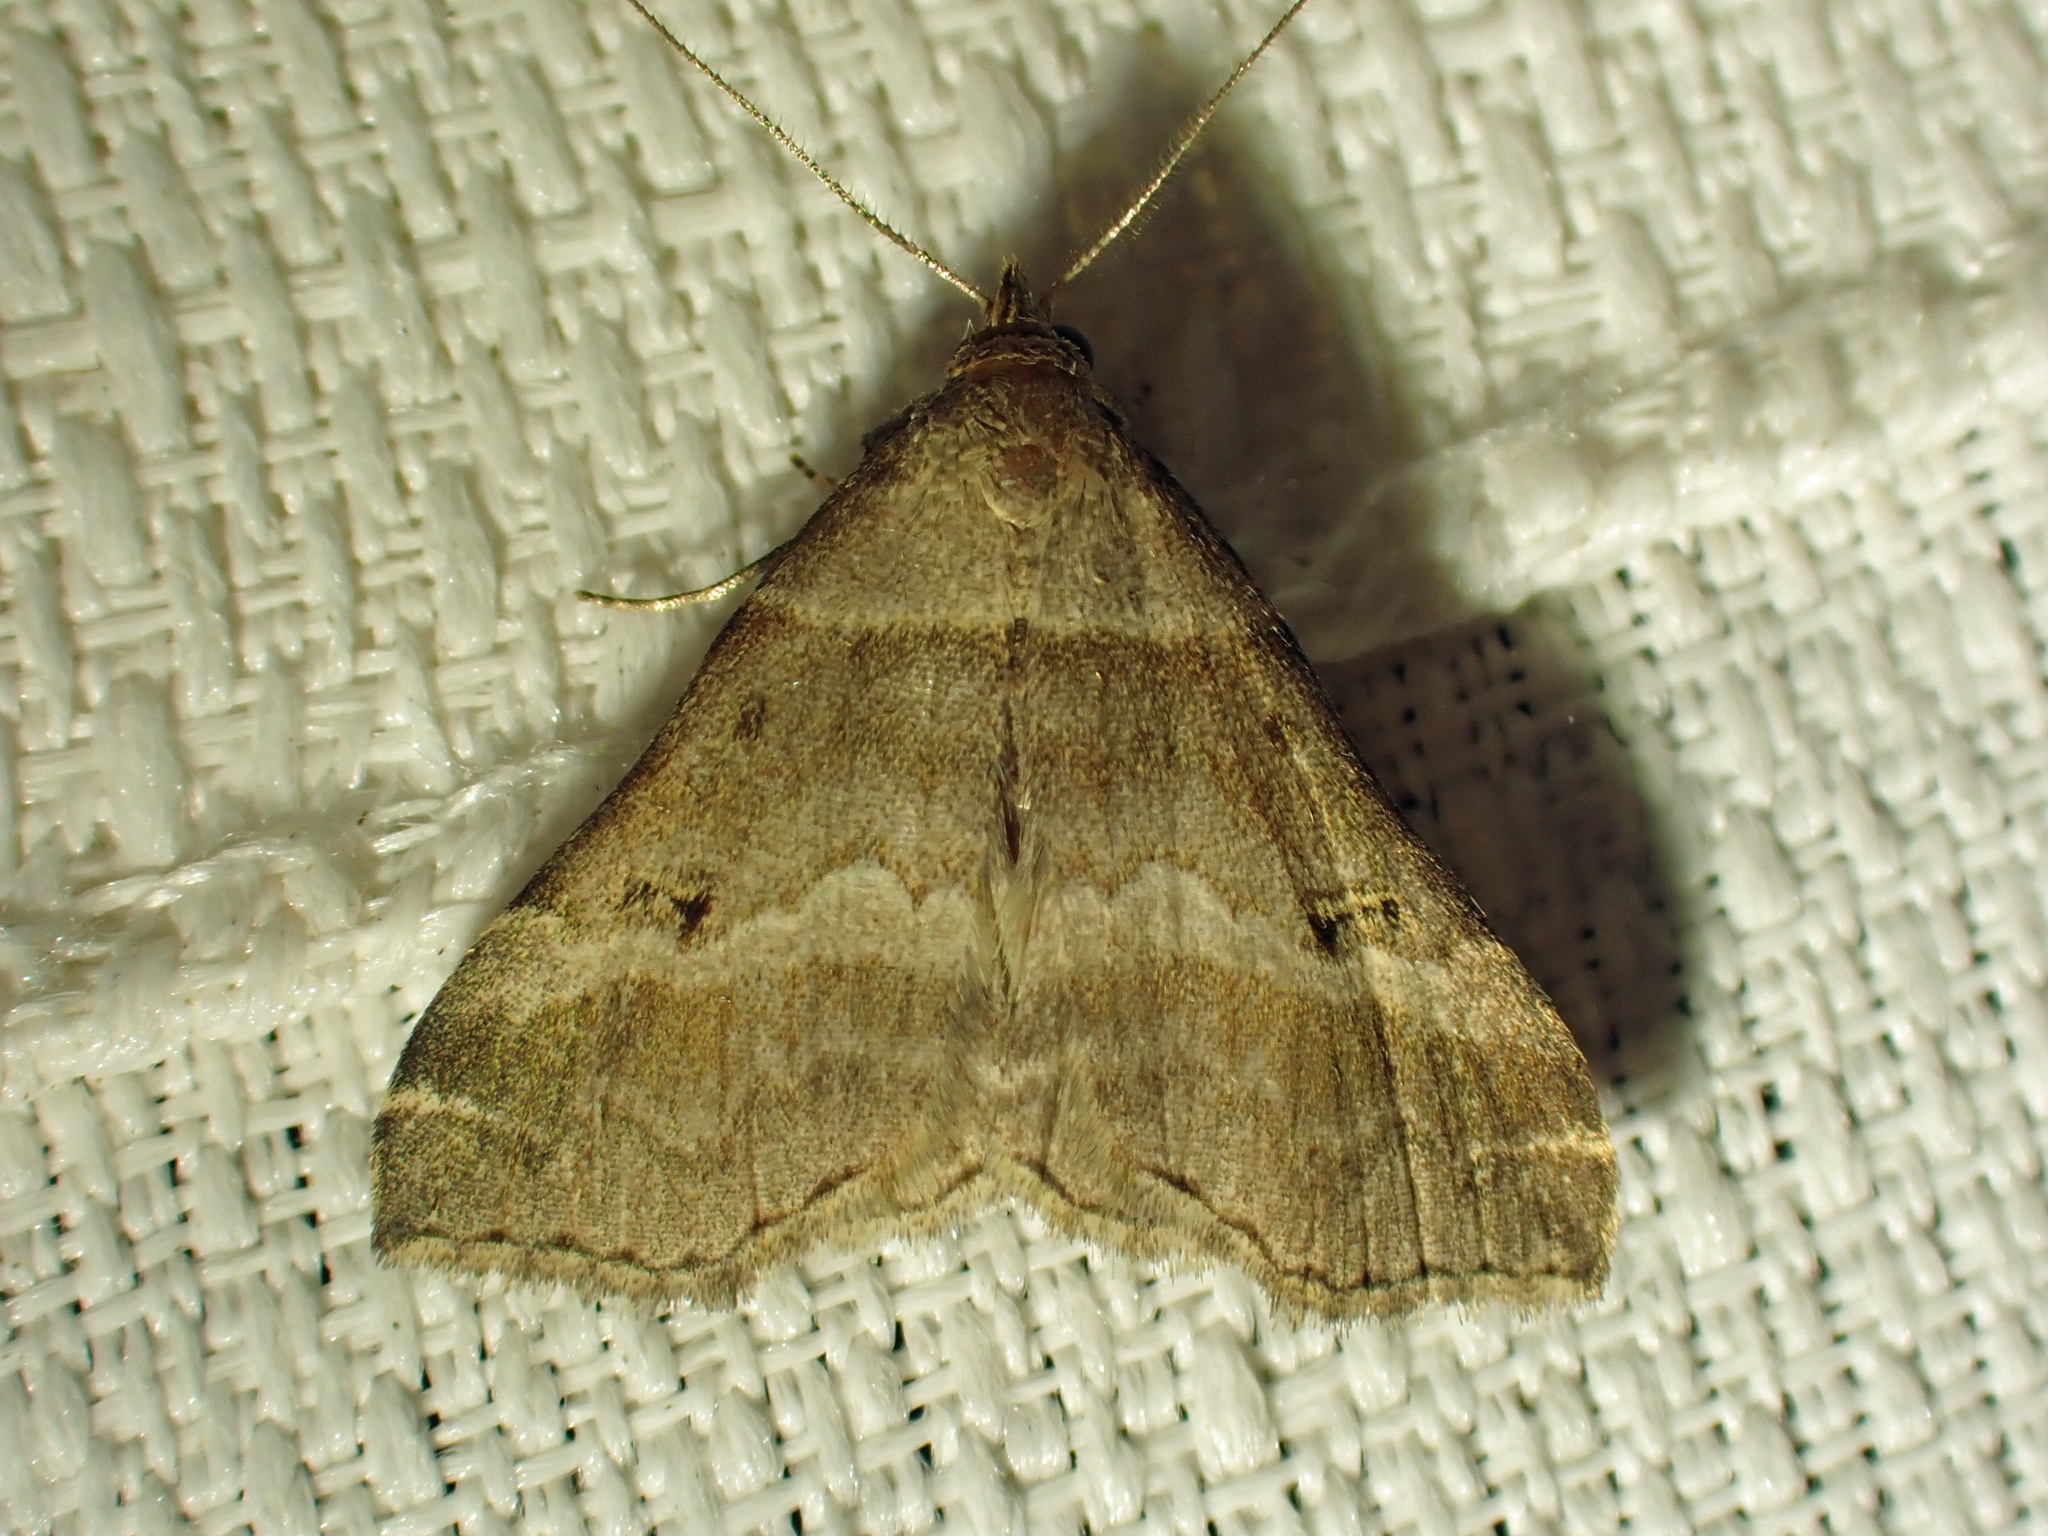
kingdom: Animalia
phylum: Arthropoda
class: Insecta
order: Lepidoptera
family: Erebidae
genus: Phaeolita
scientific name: Phaeolita pyramusalis
